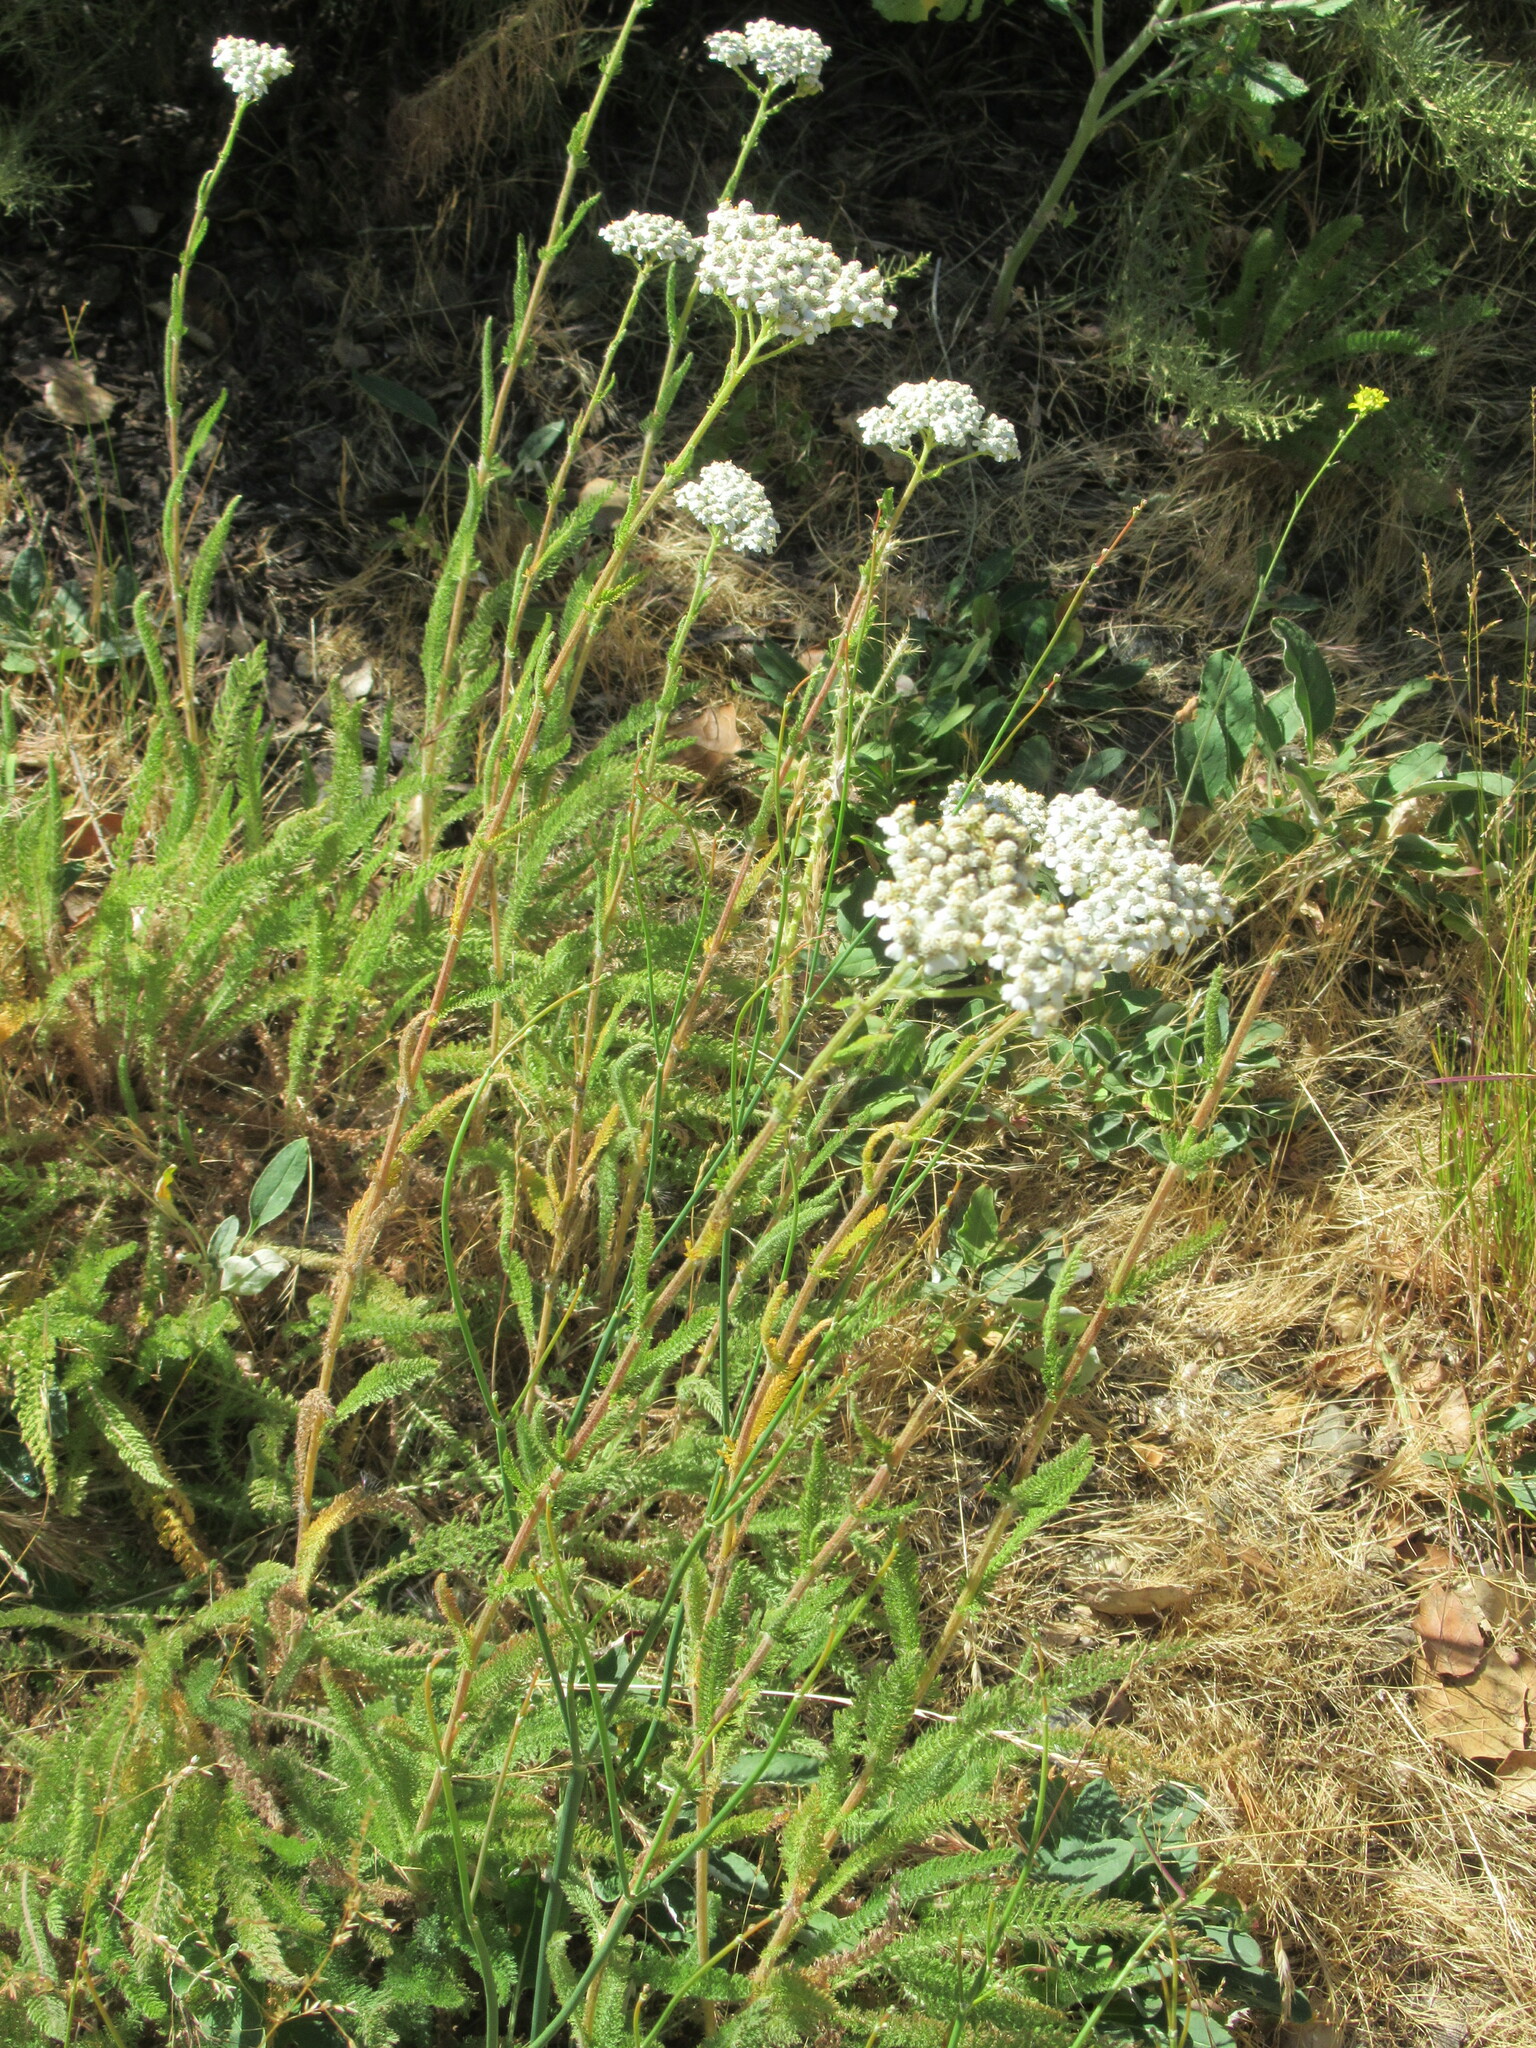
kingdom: Plantae
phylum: Tracheophyta
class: Magnoliopsida
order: Asterales
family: Asteraceae
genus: Achillea
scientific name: Achillea millefolium
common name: Yarrow
